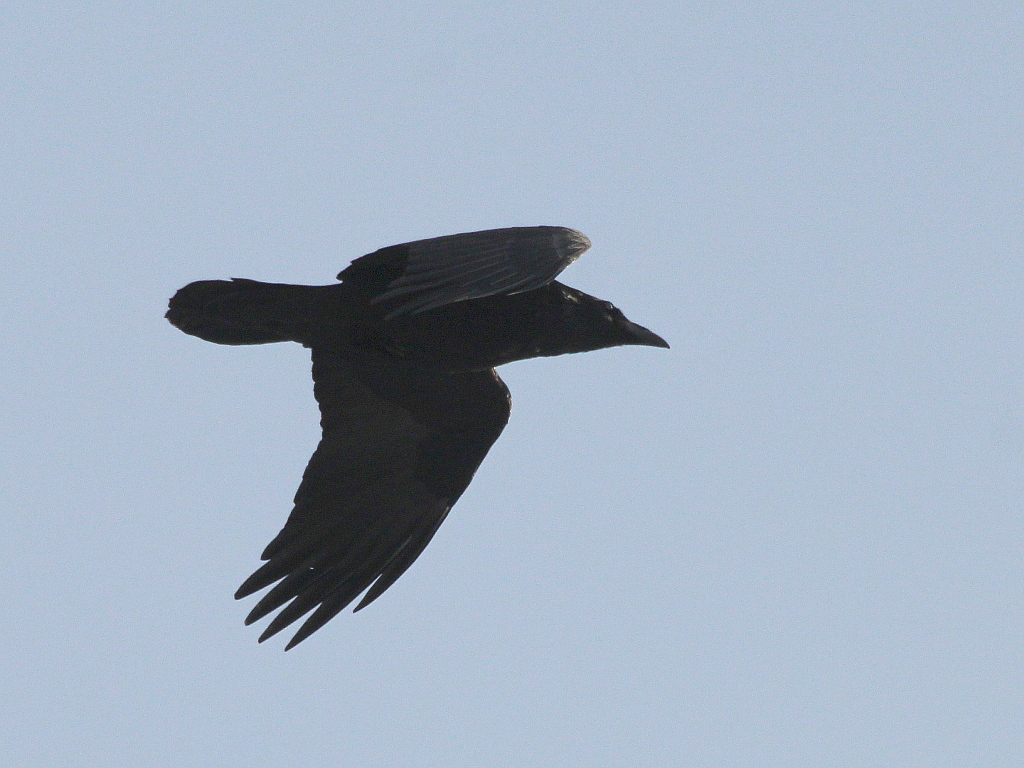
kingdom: Animalia
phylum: Chordata
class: Aves
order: Passeriformes
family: Corvidae
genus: Corvus
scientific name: Corvus corax
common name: Common raven
